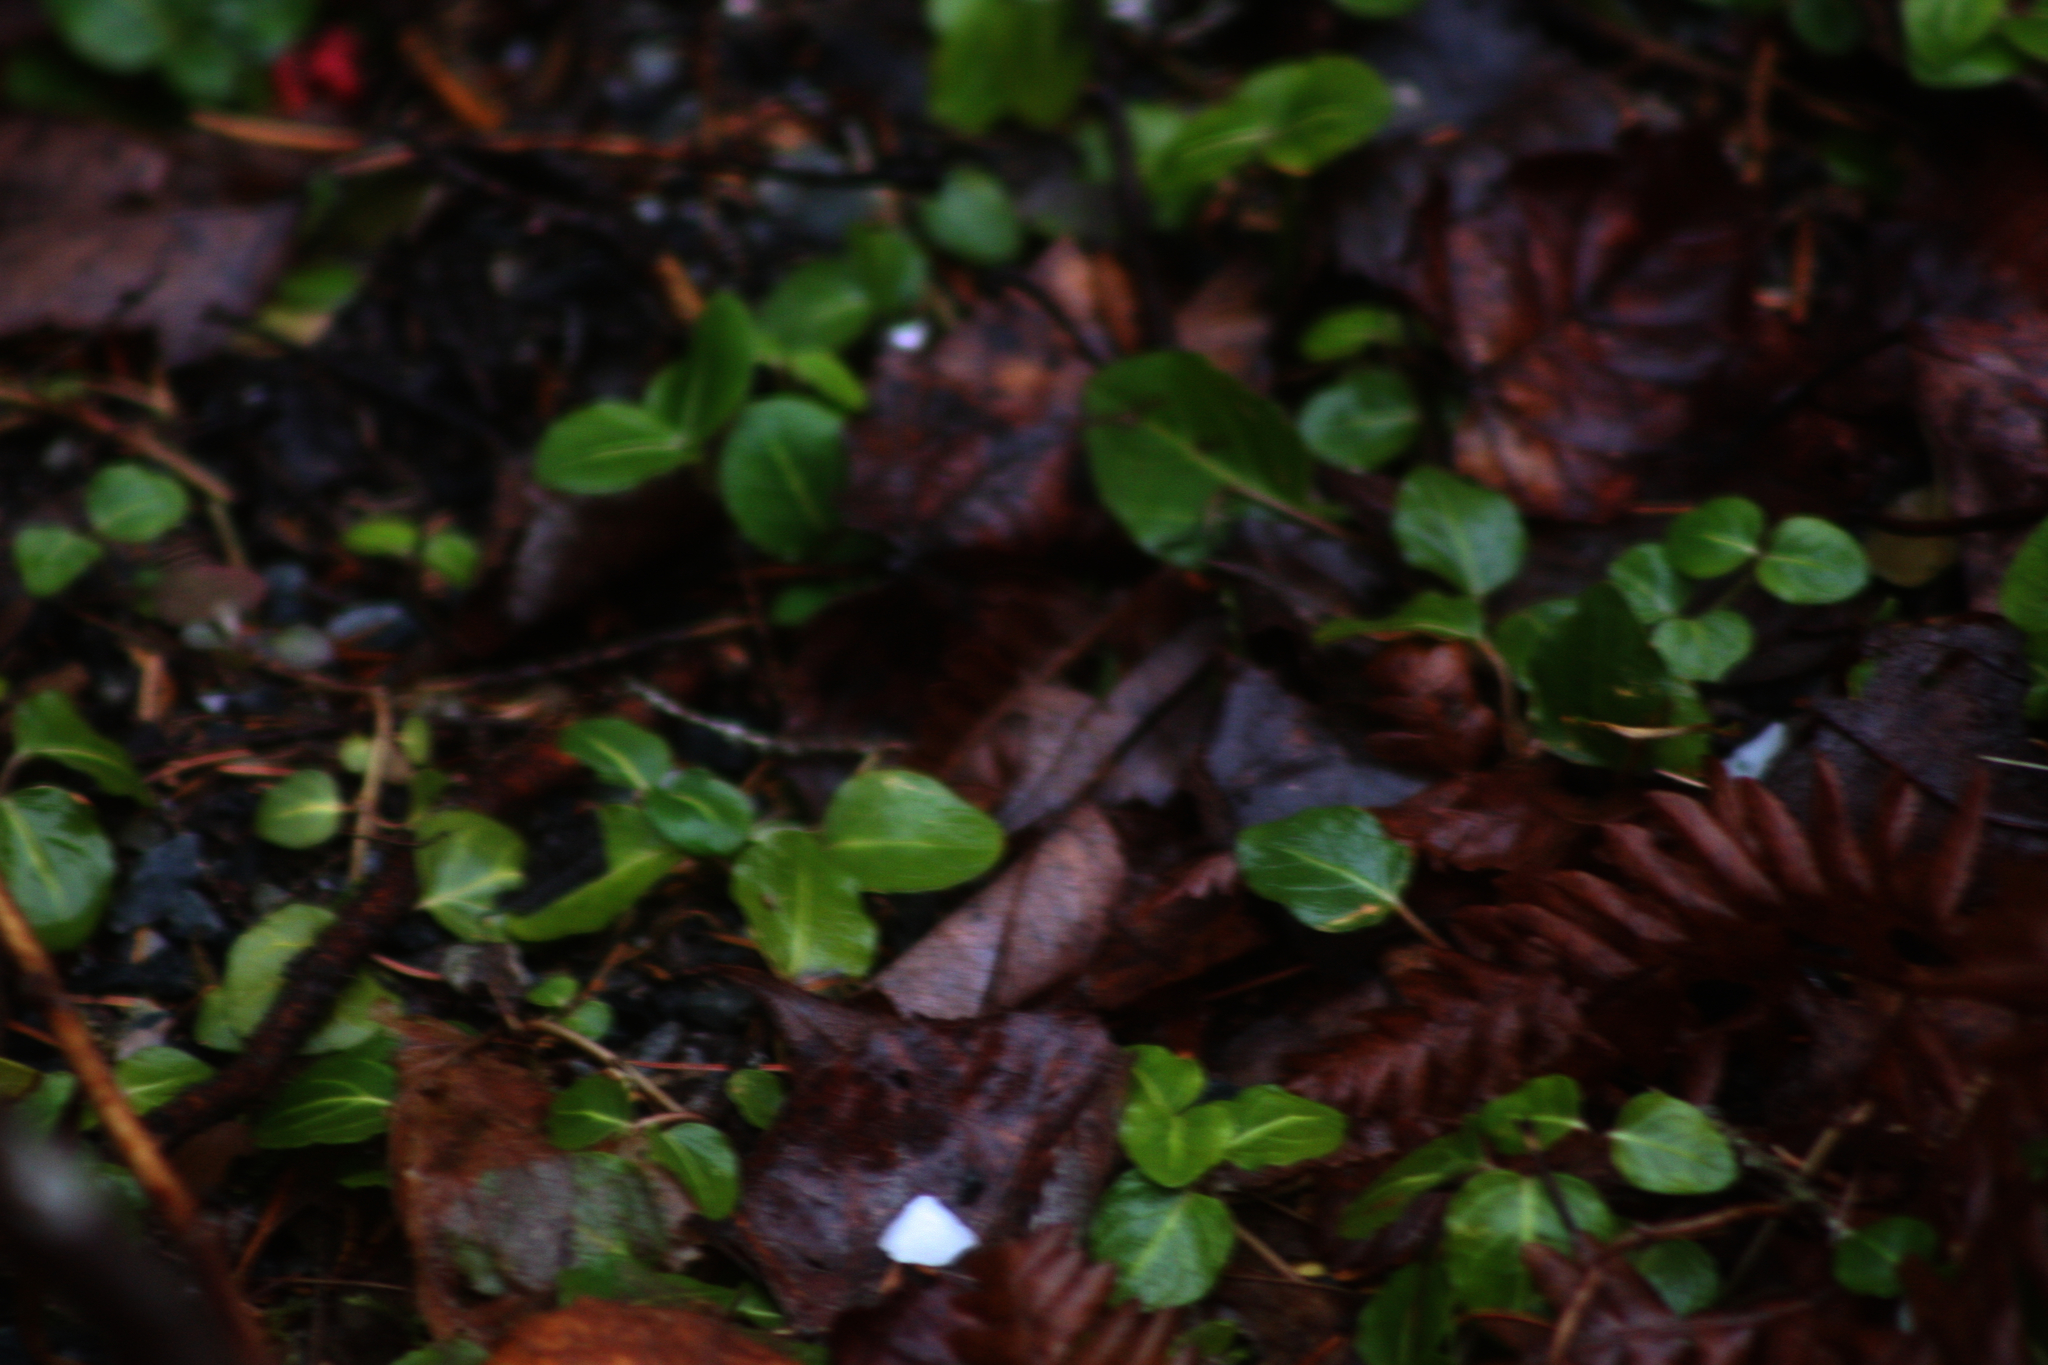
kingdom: Plantae
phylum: Tracheophyta
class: Magnoliopsida
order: Gentianales
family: Rubiaceae
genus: Mitchella
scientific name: Mitchella repens
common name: Partridge-berry
